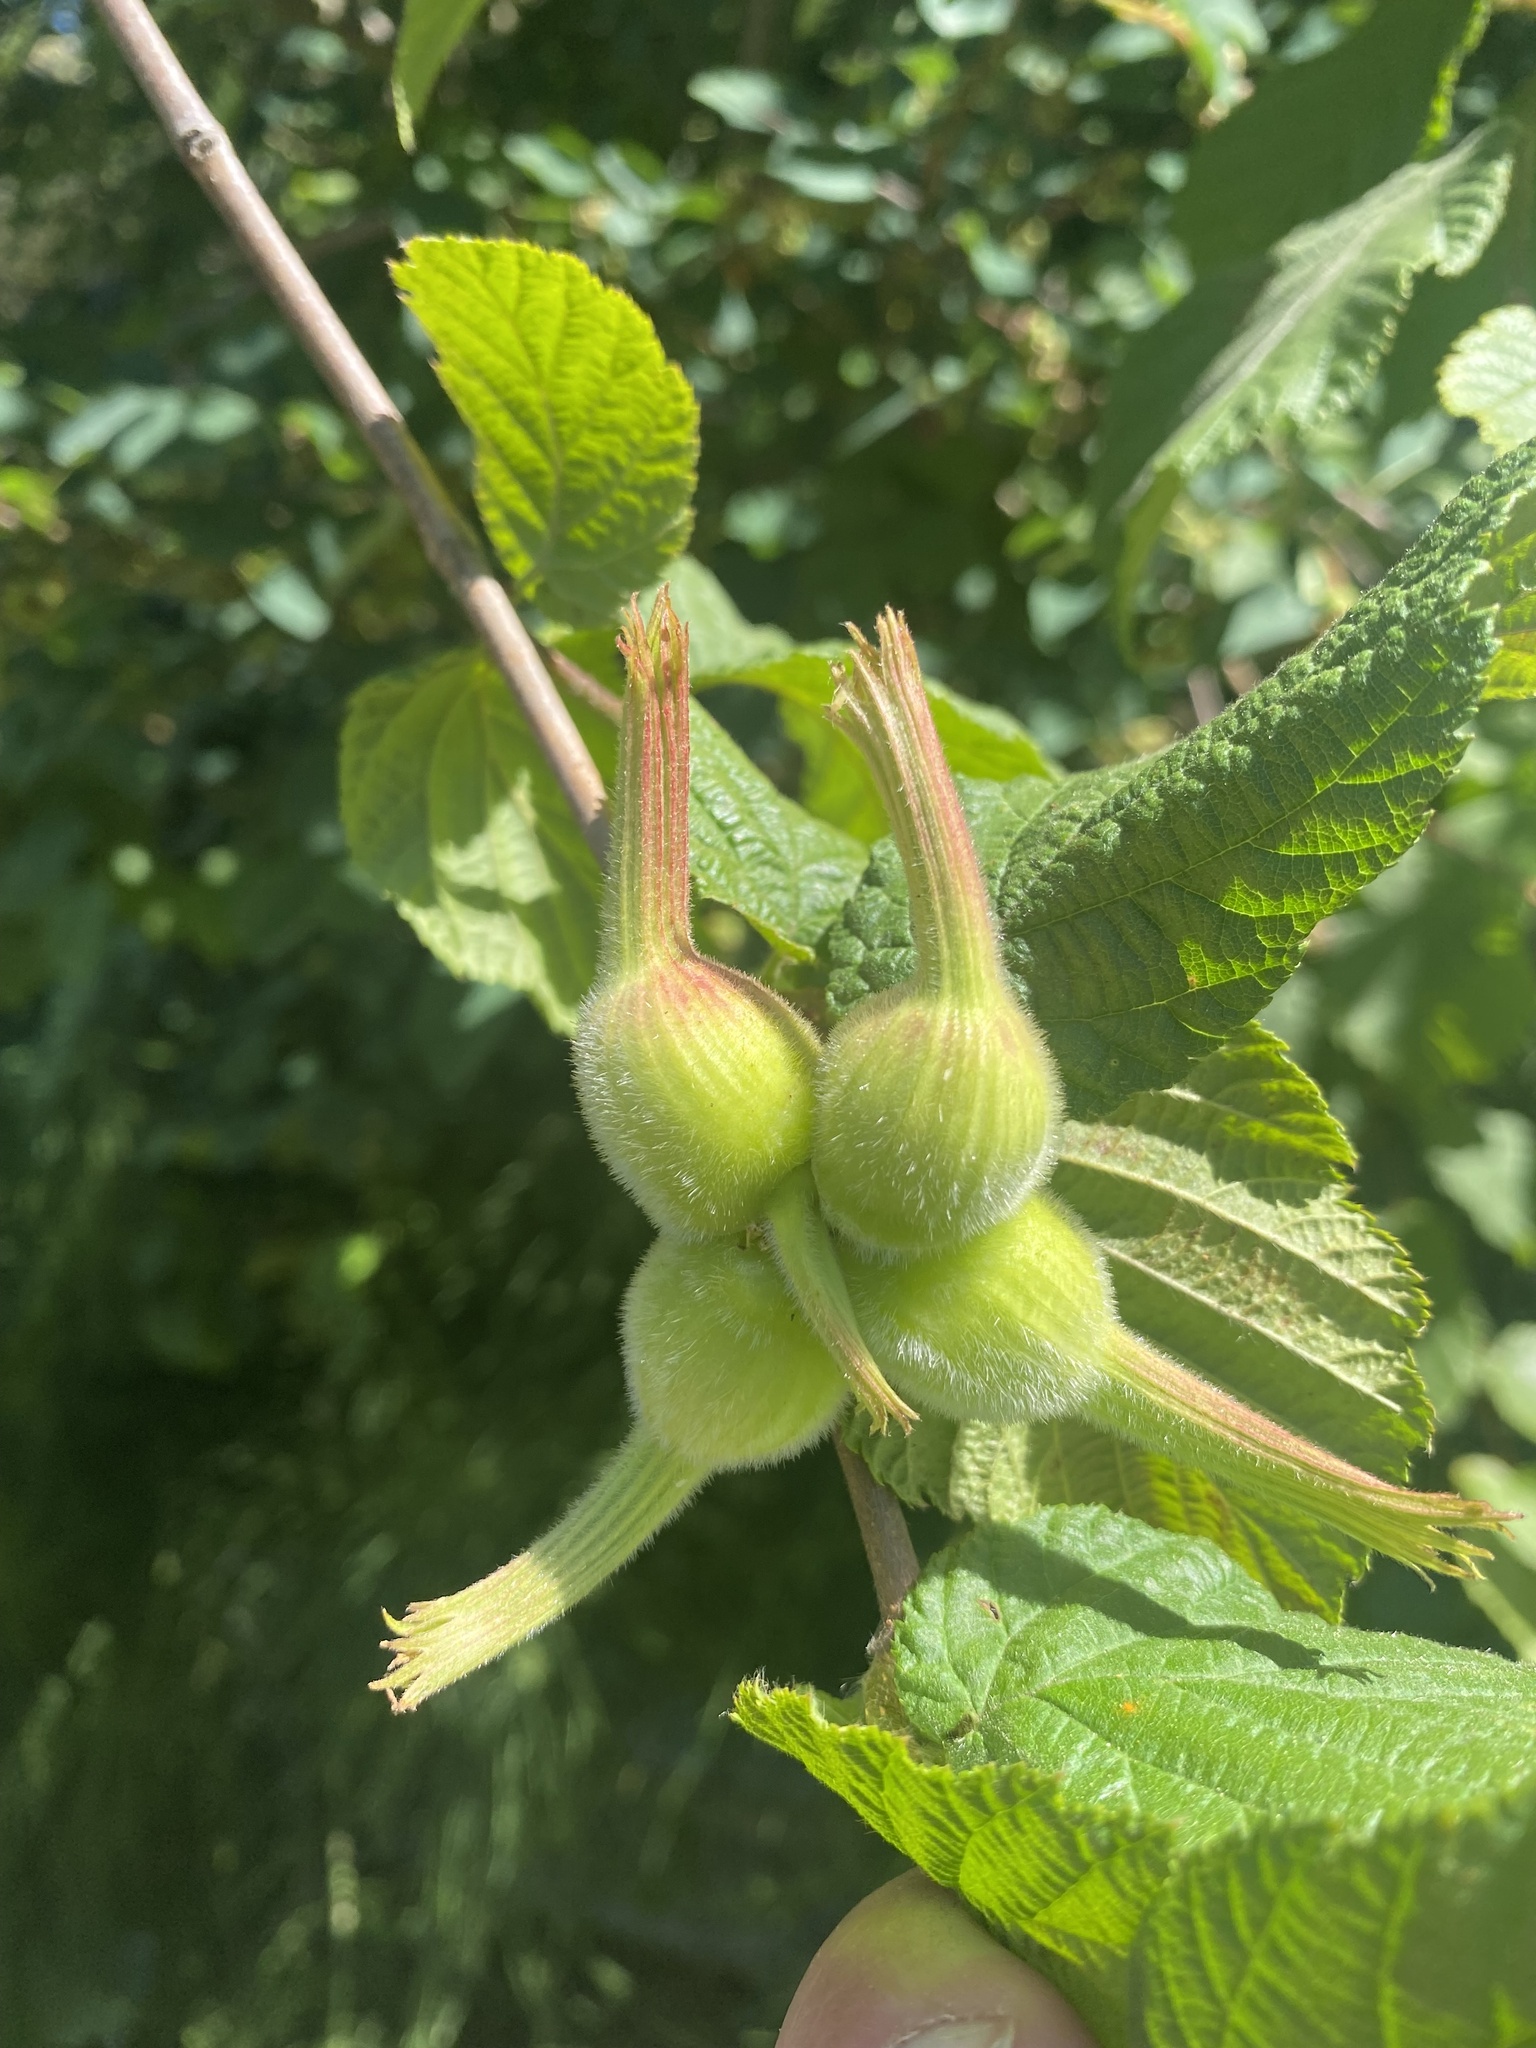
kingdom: Plantae
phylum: Tracheophyta
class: Magnoliopsida
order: Fagales
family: Betulaceae
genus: Corylus
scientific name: Corylus cornuta
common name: Beaked hazel
